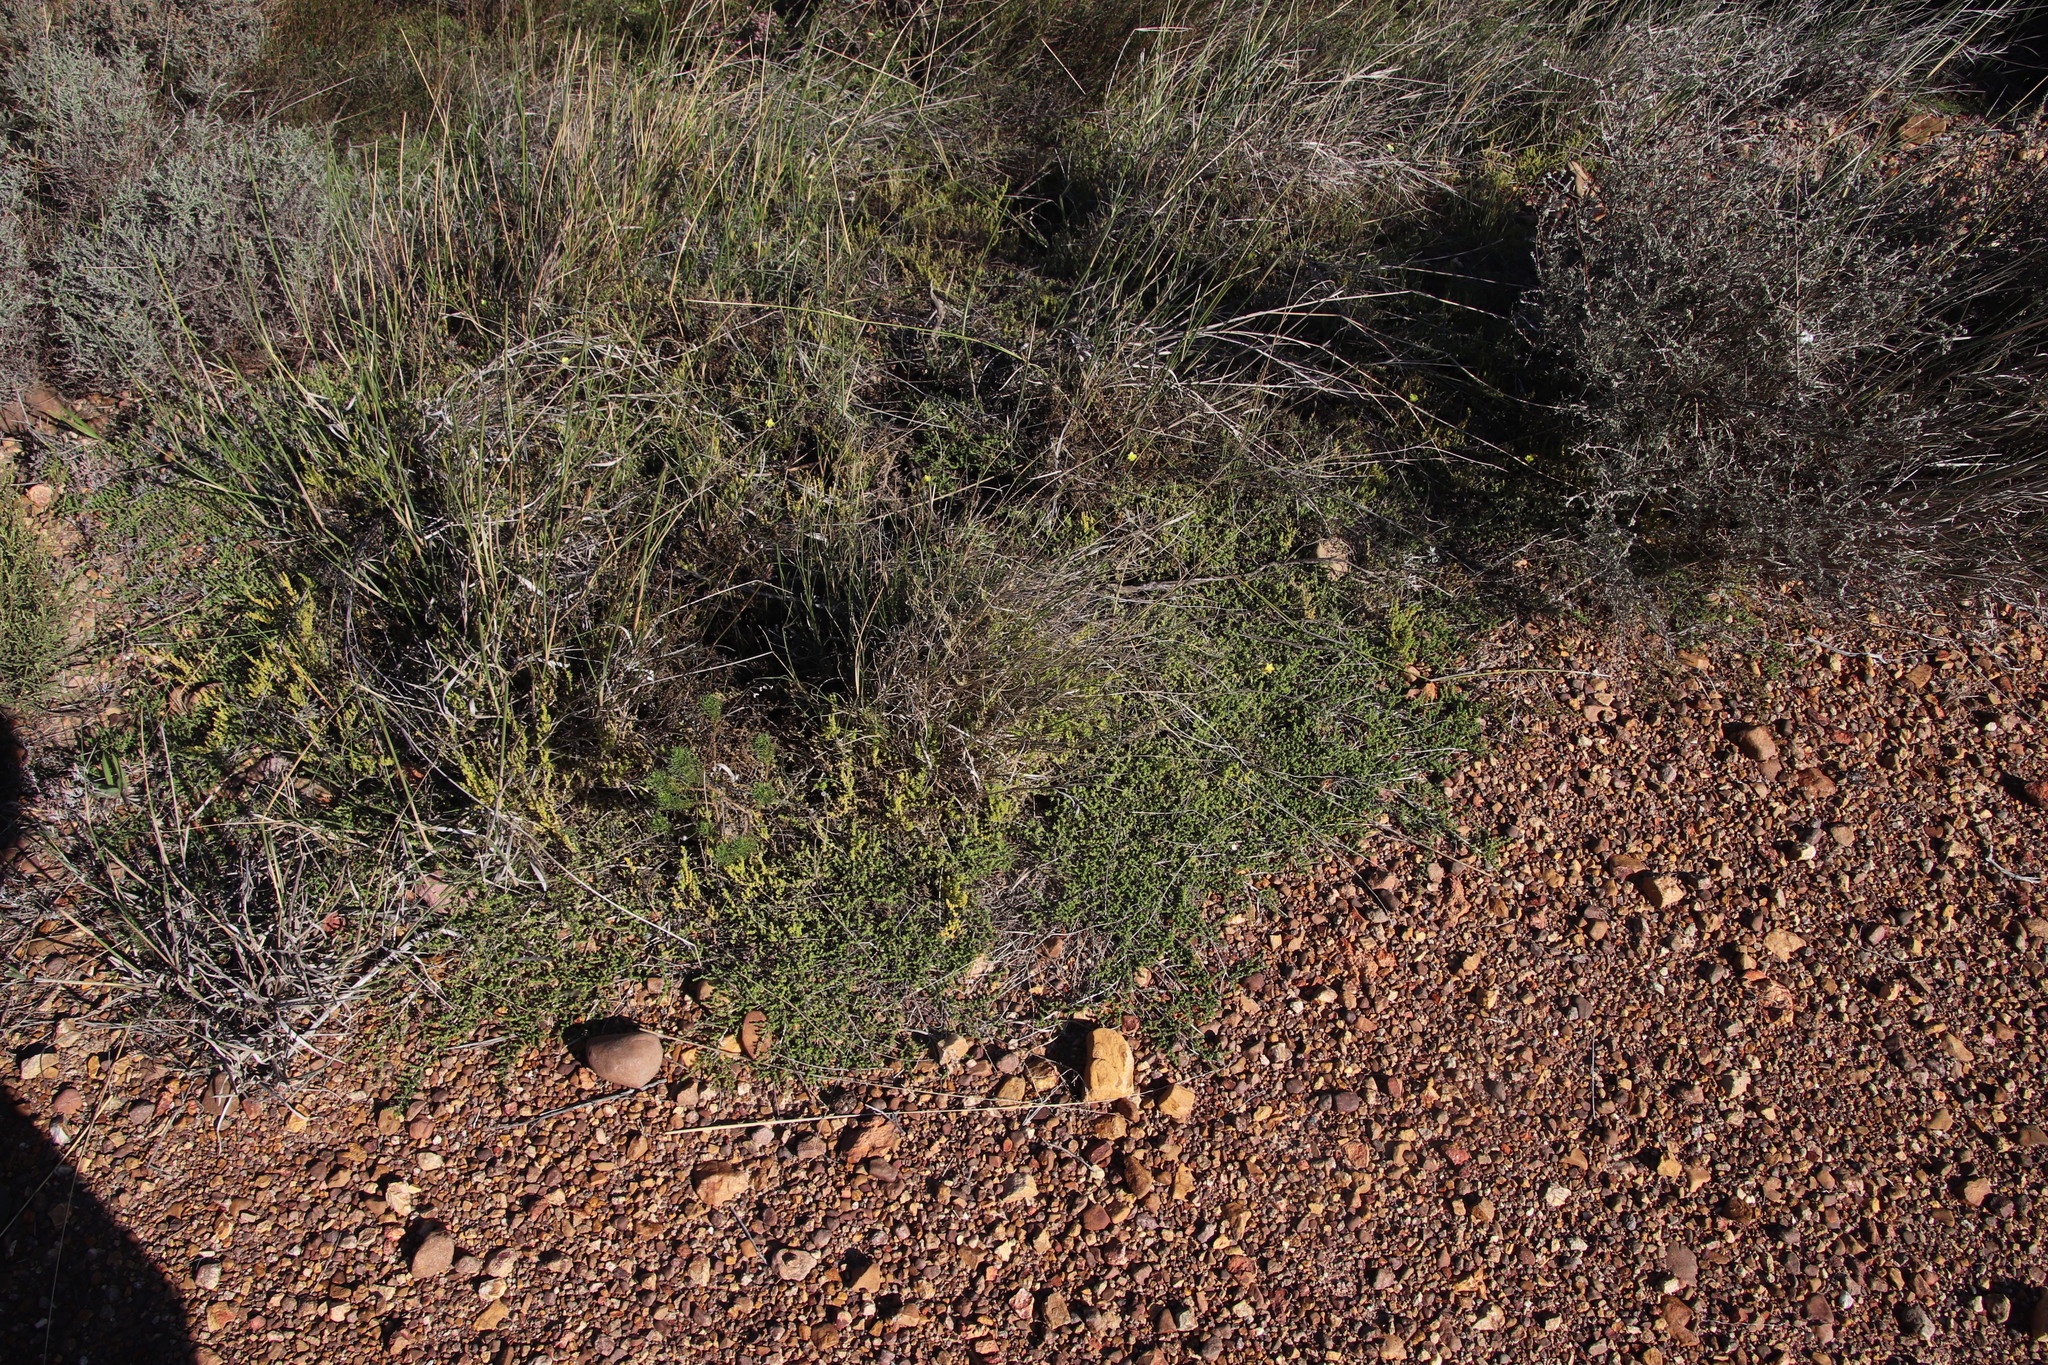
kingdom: Plantae
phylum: Tracheophyta
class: Magnoliopsida
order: Fabales
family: Fabaceae
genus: Aspalathus
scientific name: Aspalathus divaricata
